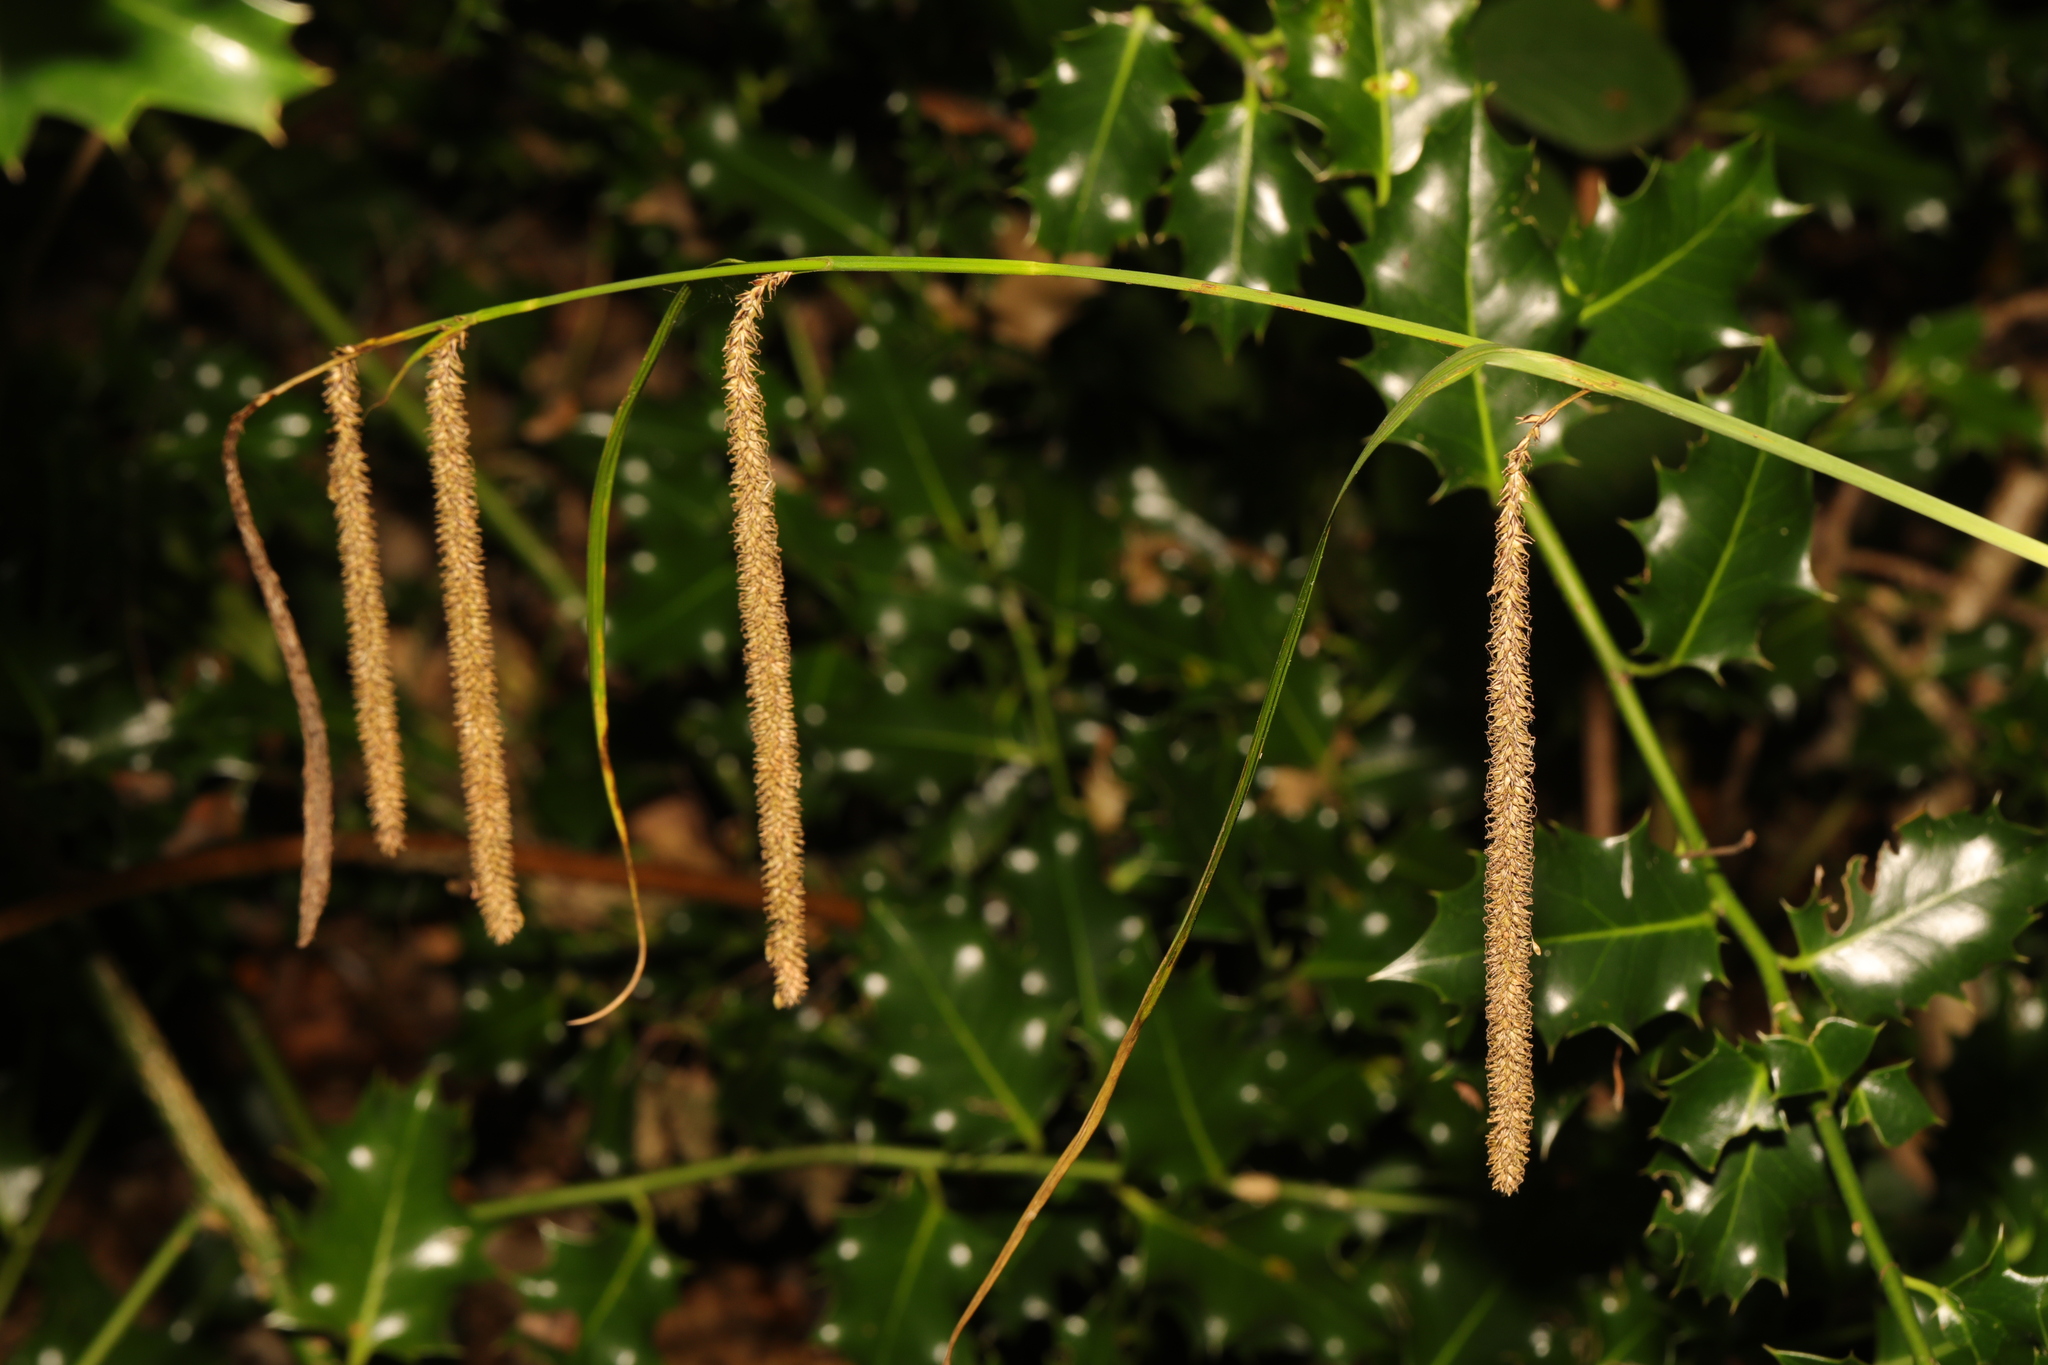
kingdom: Plantae
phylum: Tracheophyta
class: Liliopsida
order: Poales
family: Cyperaceae
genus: Carex
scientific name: Carex pendula
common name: Pendulous sedge
